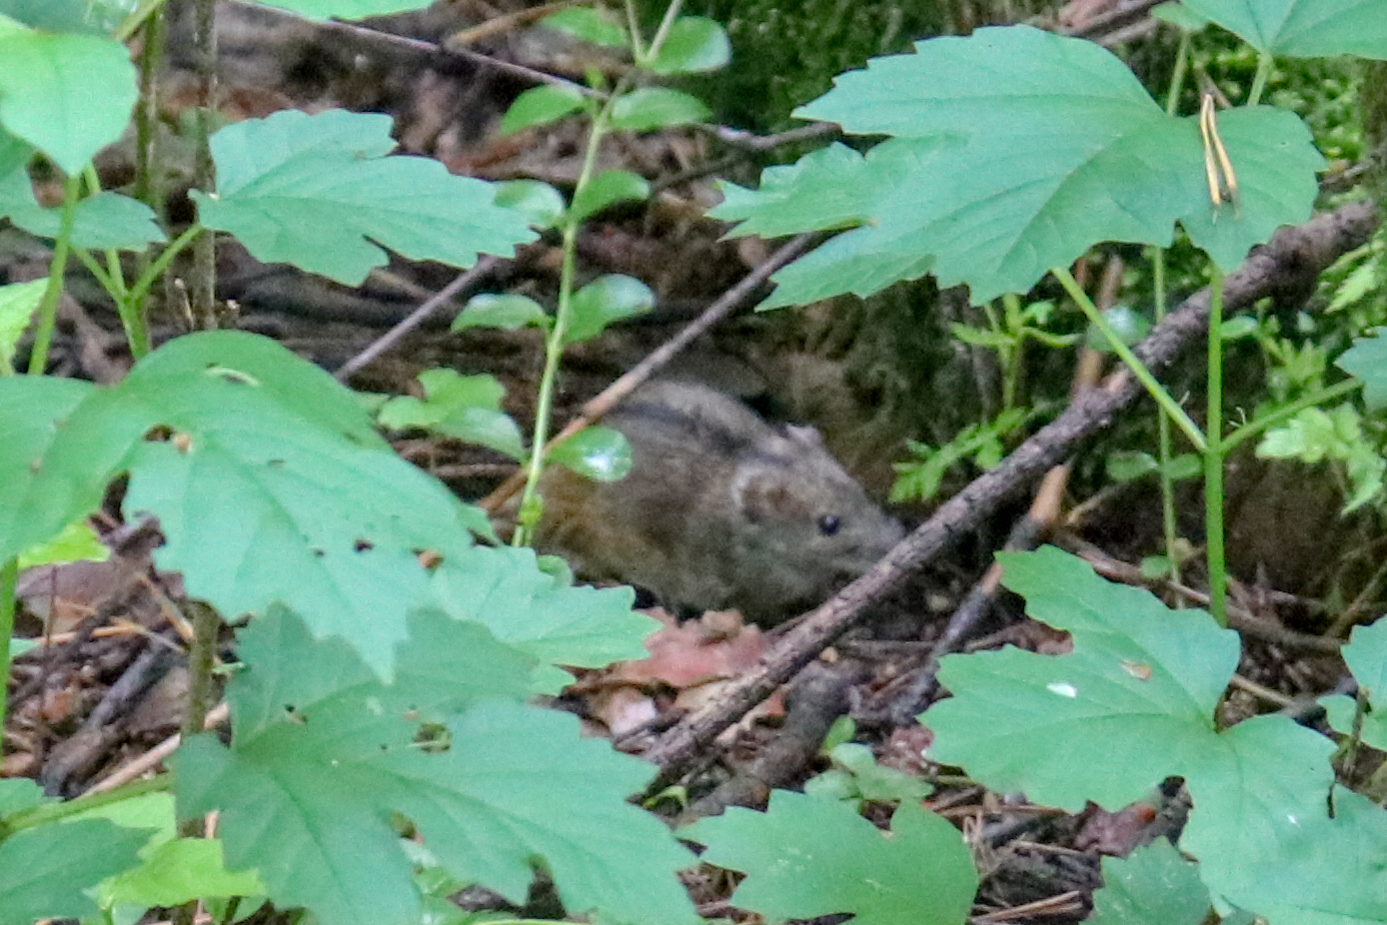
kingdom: Animalia
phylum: Chordata
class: Mammalia
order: Rodentia
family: Muridae
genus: Apodemus
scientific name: Apodemus agrarius
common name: Striped field mouse
